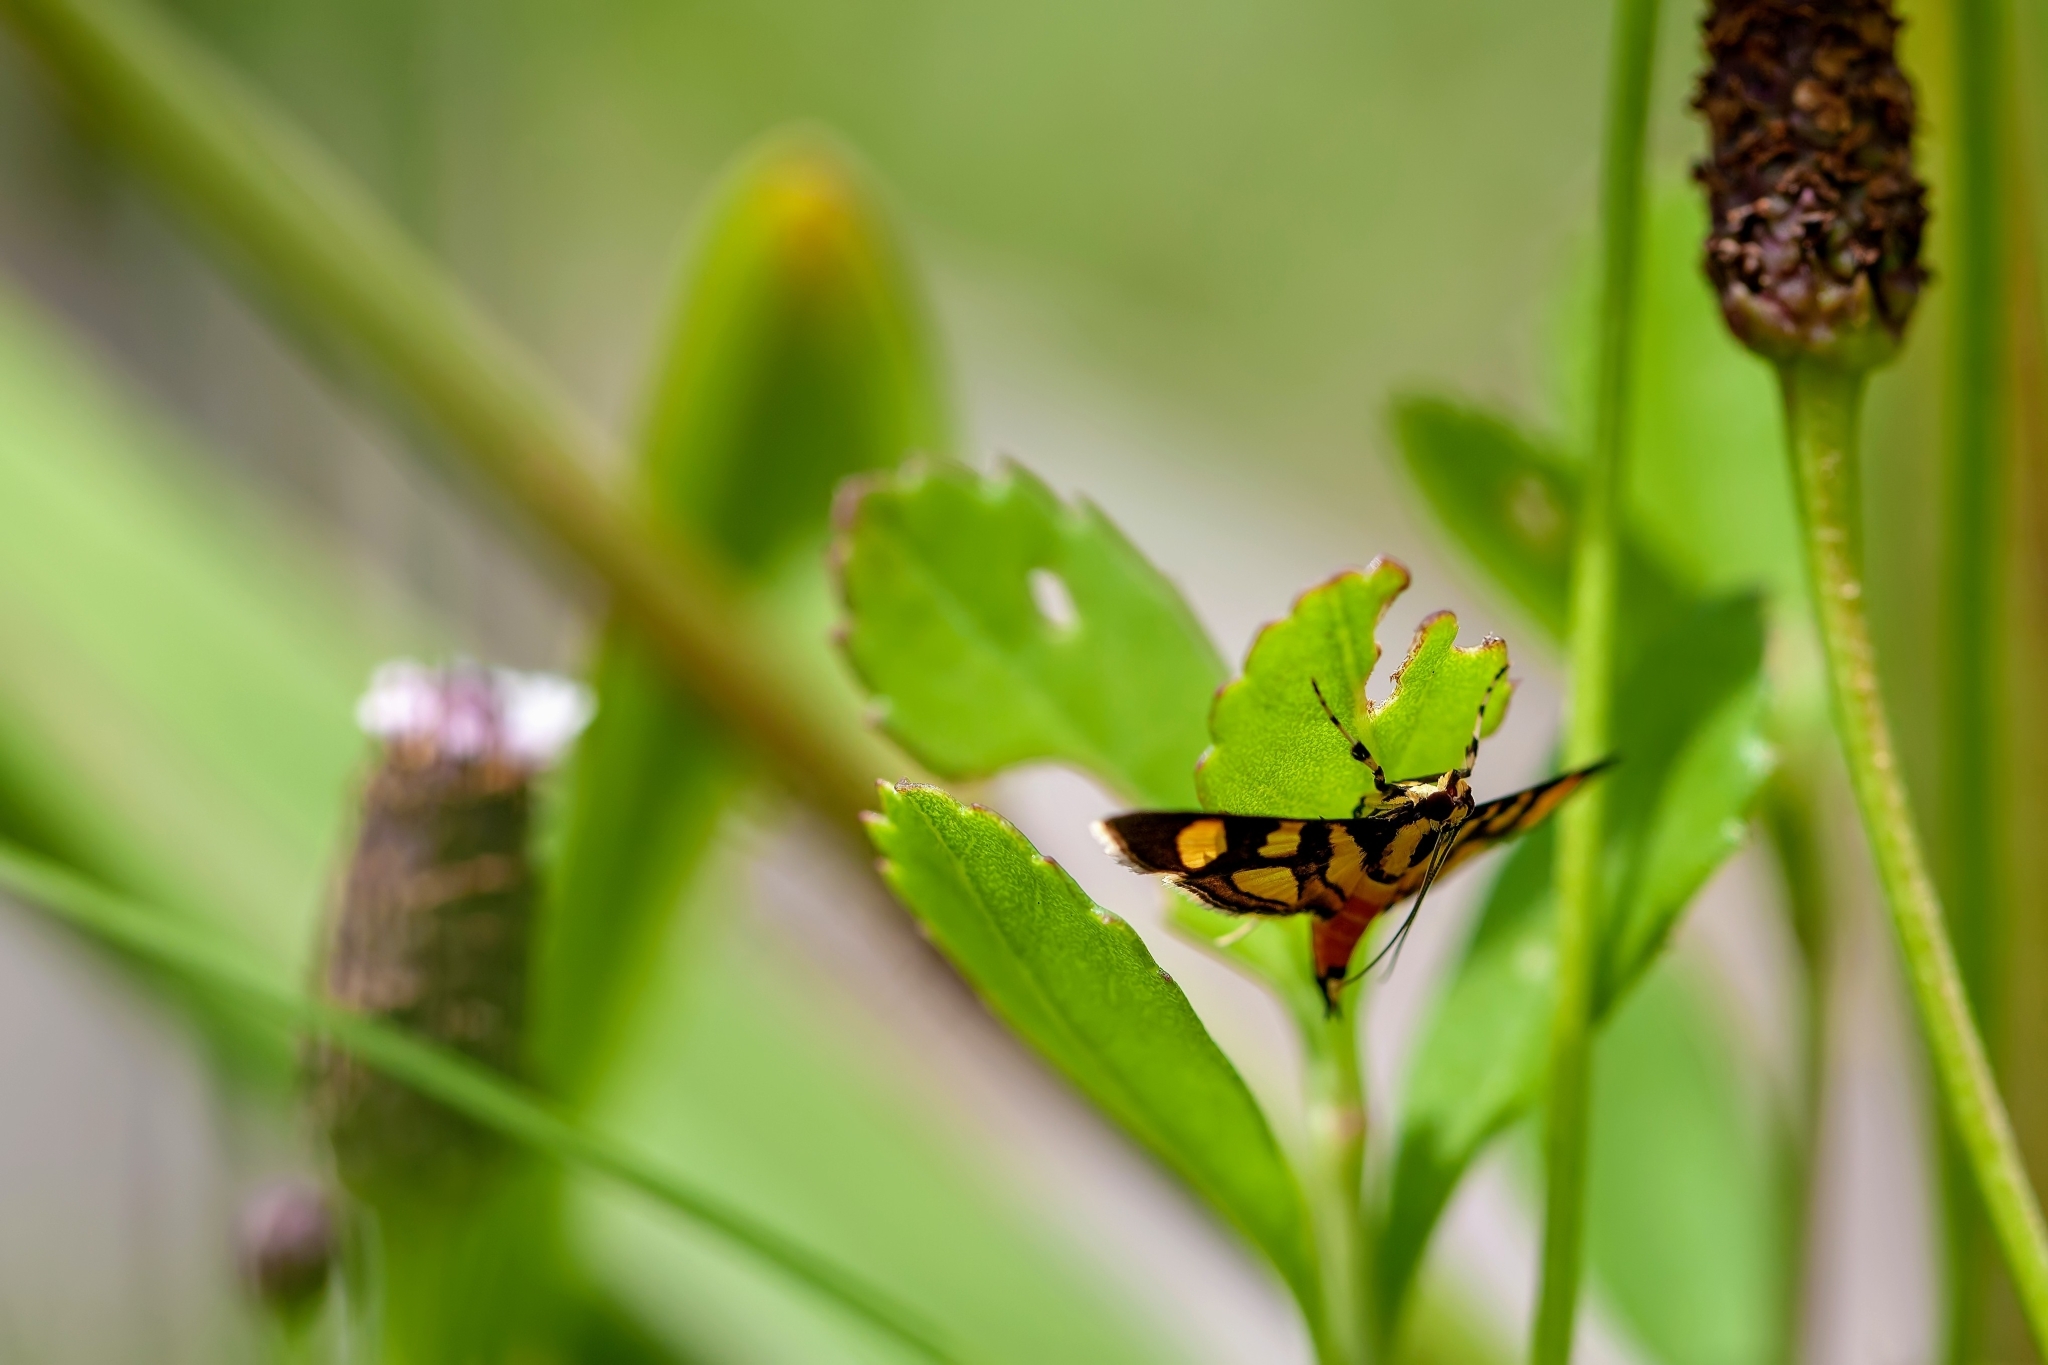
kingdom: Animalia
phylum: Arthropoda
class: Insecta
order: Lepidoptera
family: Crambidae
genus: Syngamia
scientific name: Syngamia florella
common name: Orange-spotted flower moth
